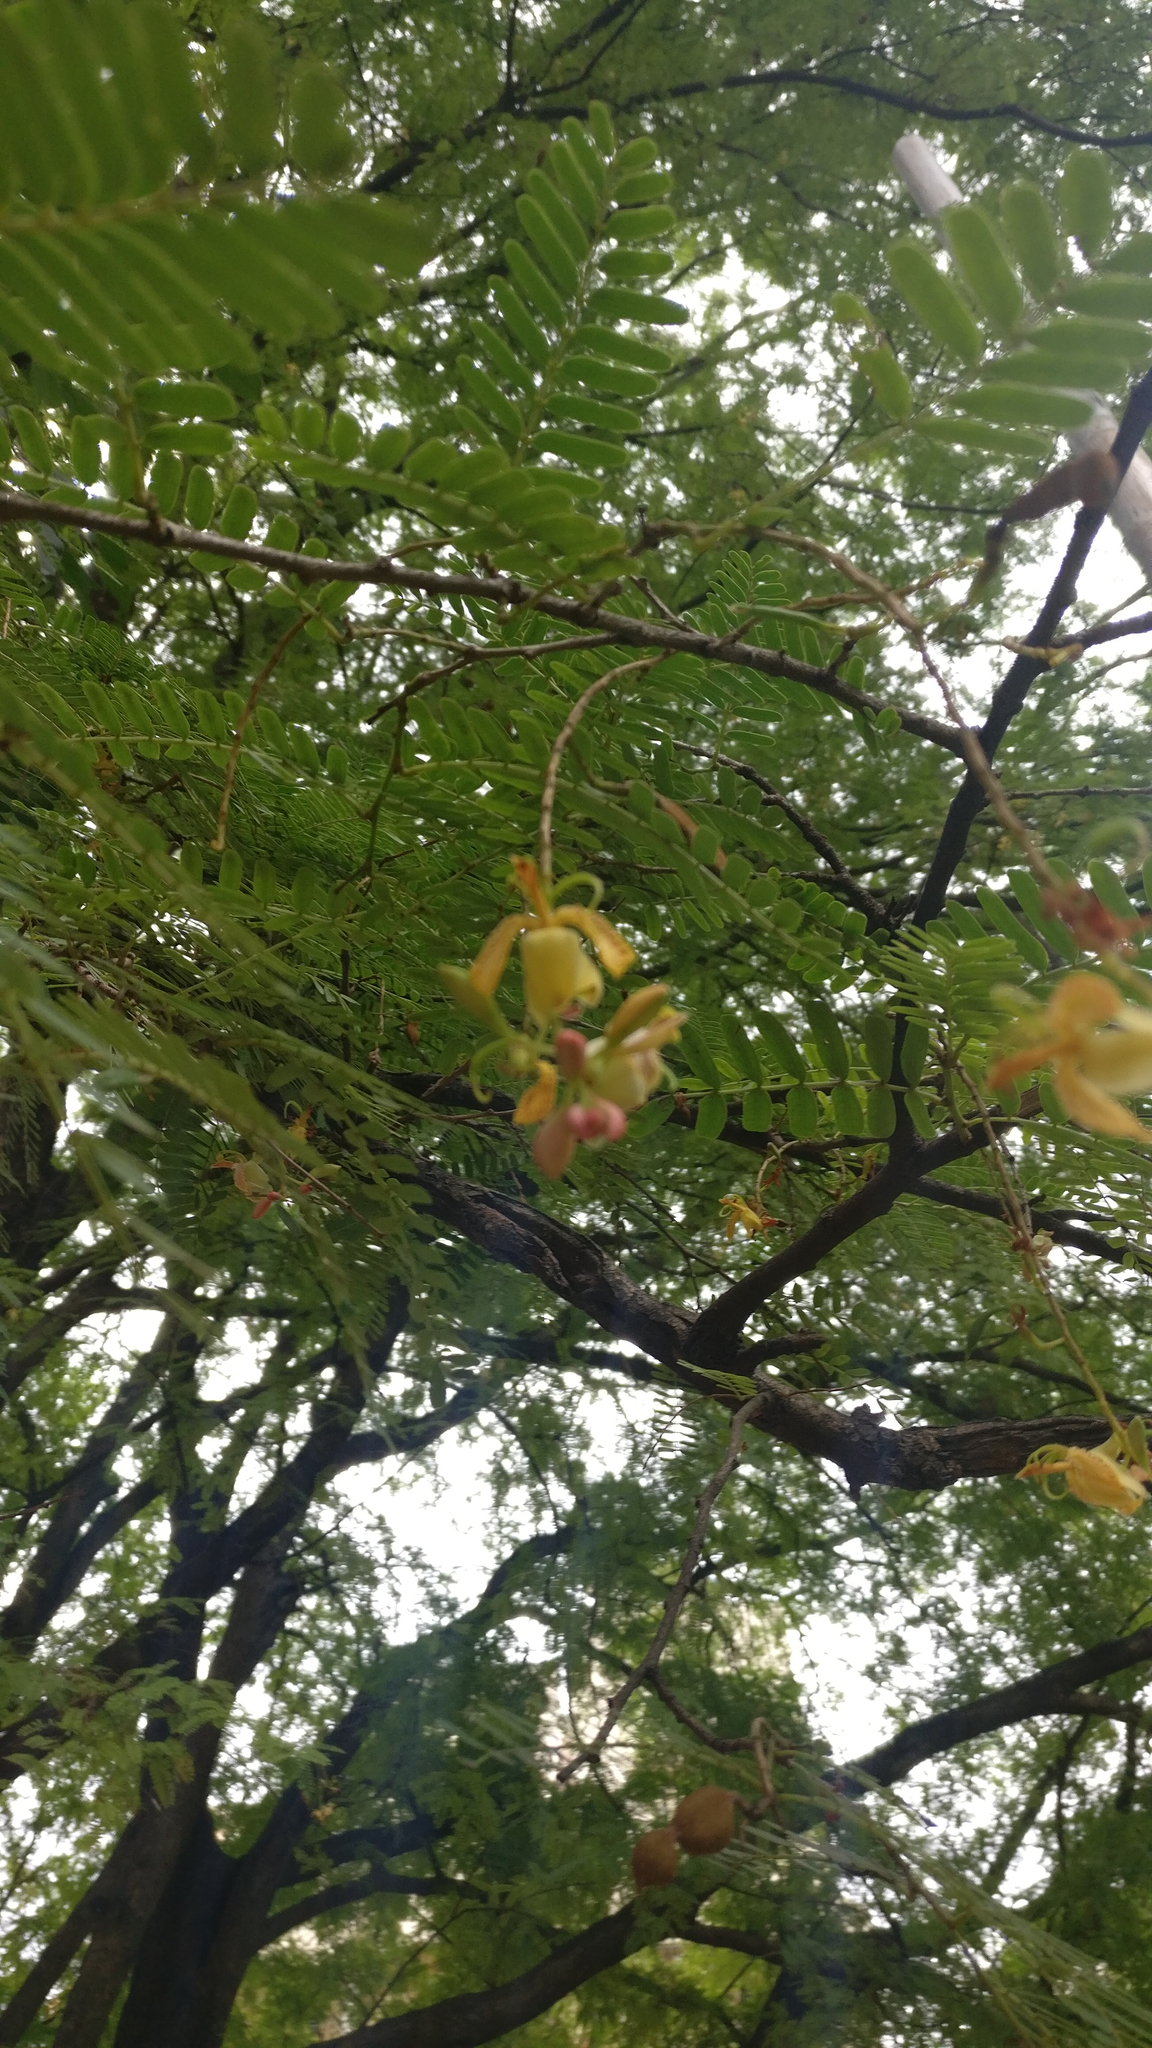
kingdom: Plantae
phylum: Tracheophyta
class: Magnoliopsida
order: Fabales
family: Fabaceae
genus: Tamarindus
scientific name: Tamarindus indica
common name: Tamarind
